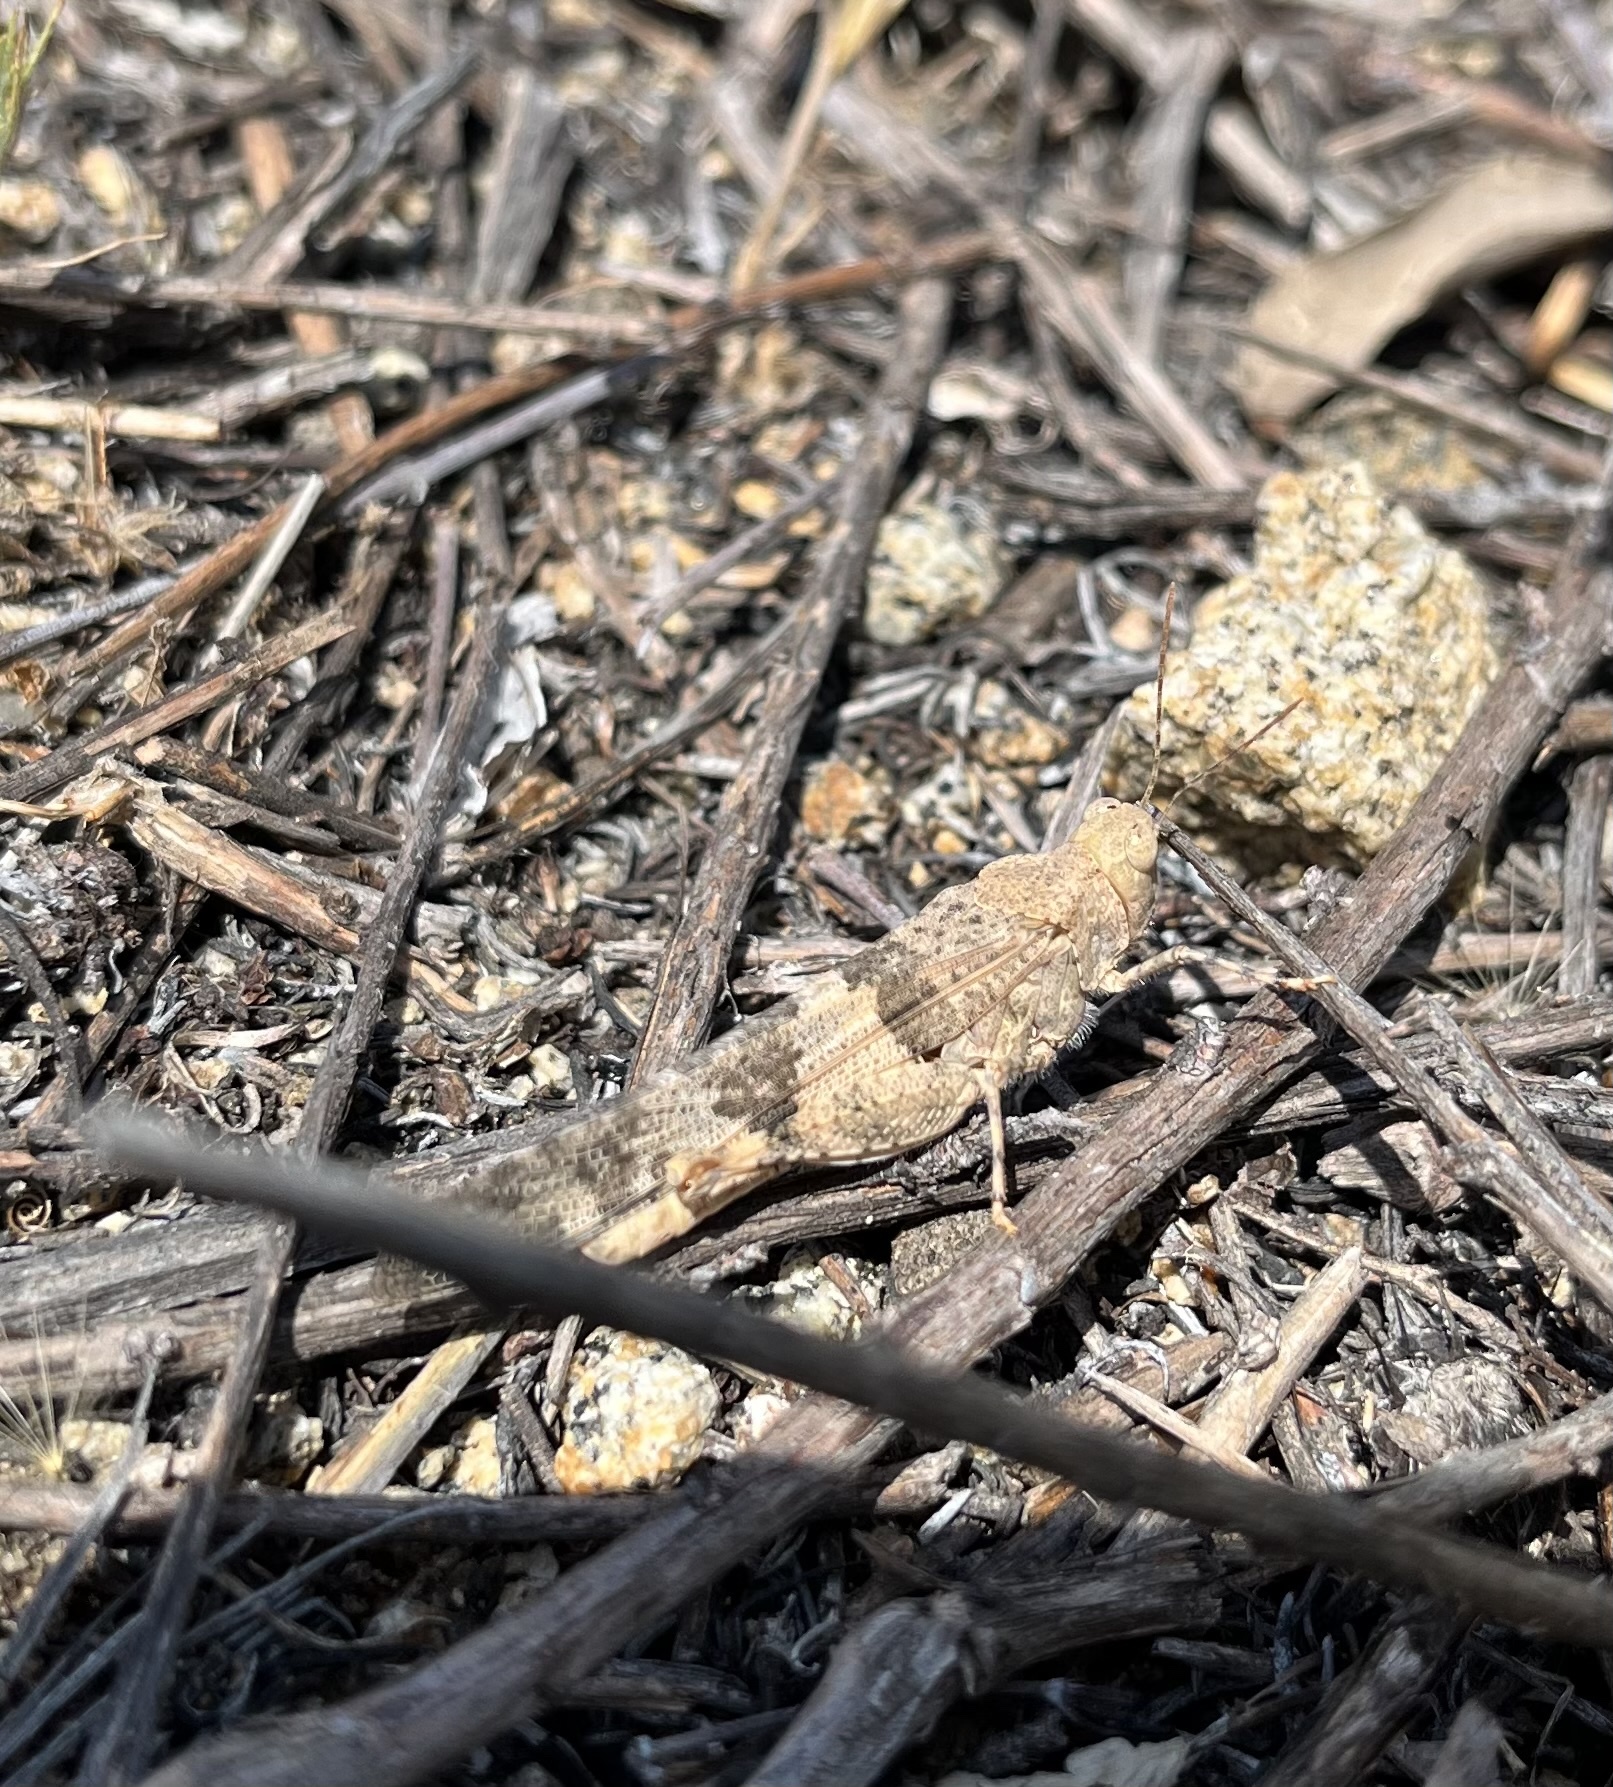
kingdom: Animalia
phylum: Arthropoda
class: Insecta
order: Orthoptera
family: Acrididae
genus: Trimerotropis
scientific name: Trimerotropis pallidipennis
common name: Pallid-winged grasshopper
